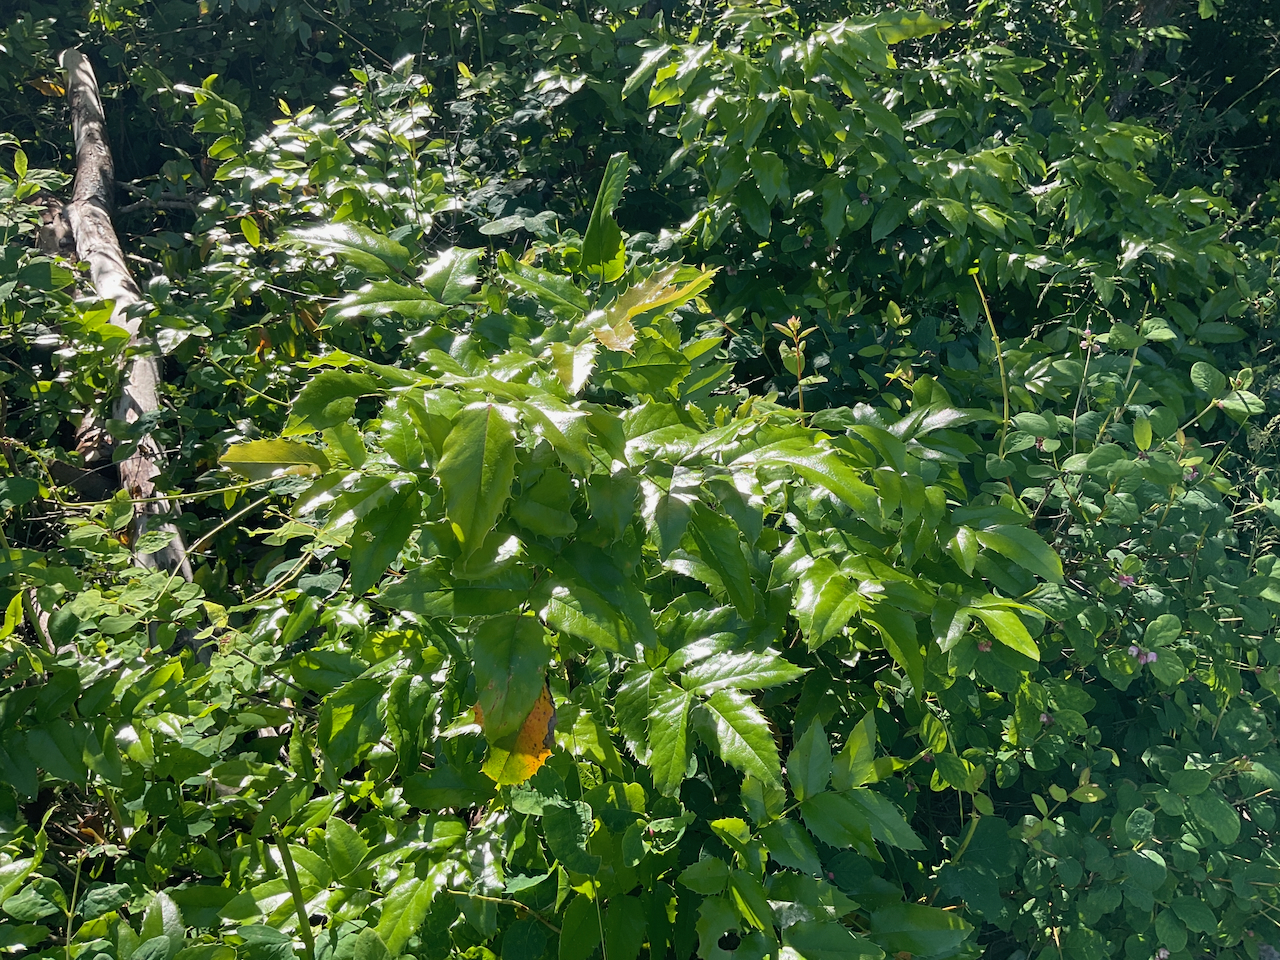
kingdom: Plantae
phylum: Tracheophyta
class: Magnoliopsida
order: Ranunculales
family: Berberidaceae
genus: Mahonia
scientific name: Mahonia aquifolium
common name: Oregon-grape
